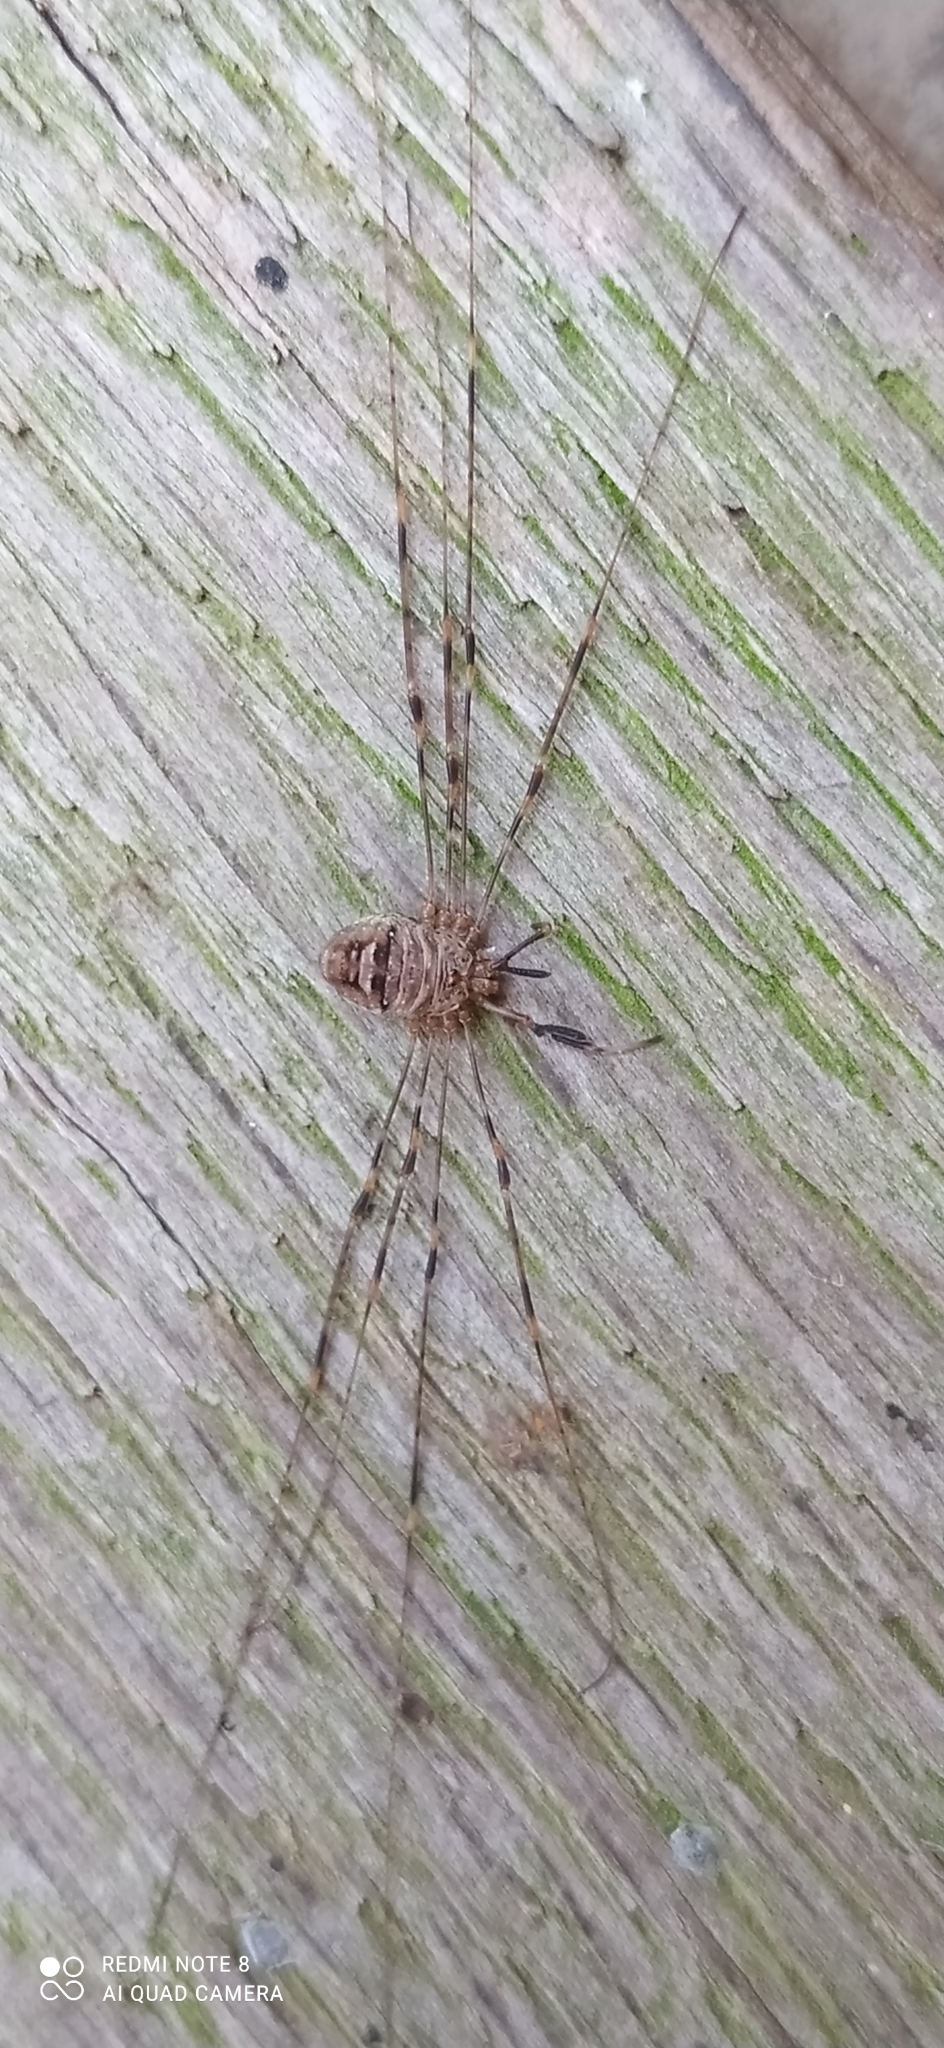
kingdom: Animalia
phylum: Arthropoda
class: Arachnida
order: Opiliones
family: Phalangiidae
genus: Dicranopalpus
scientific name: Dicranopalpus ramosus
